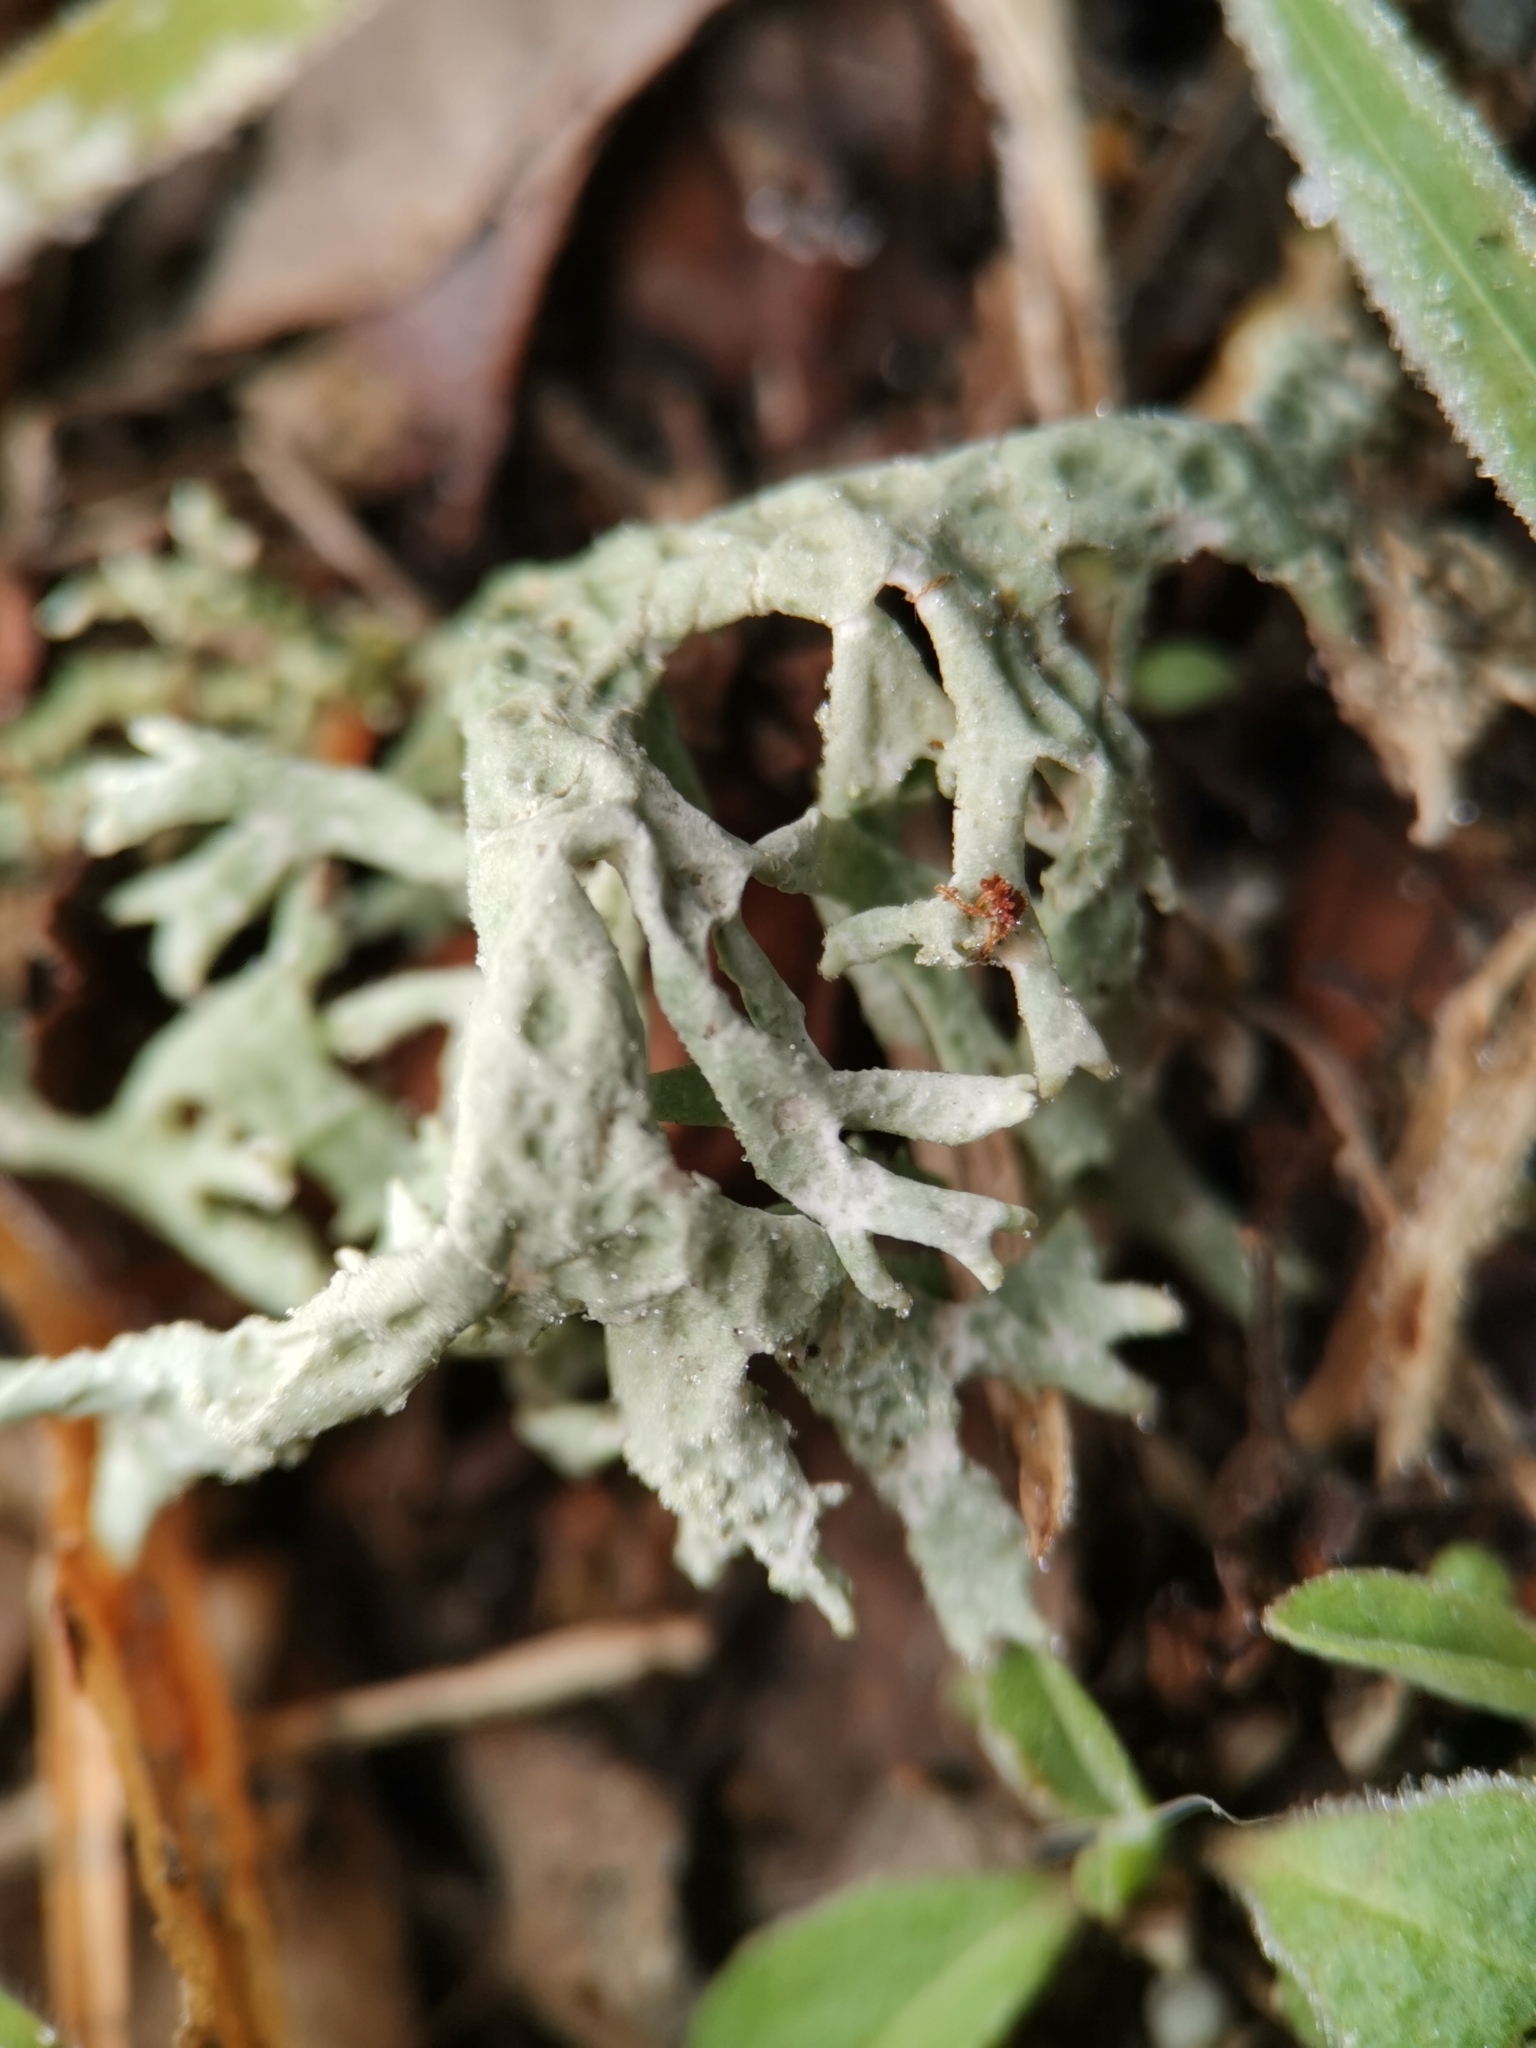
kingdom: Fungi
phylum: Ascomycota
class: Lecanoromycetes
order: Lecanorales
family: Parmeliaceae
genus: Evernia
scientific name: Evernia prunastri
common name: Oak moss
